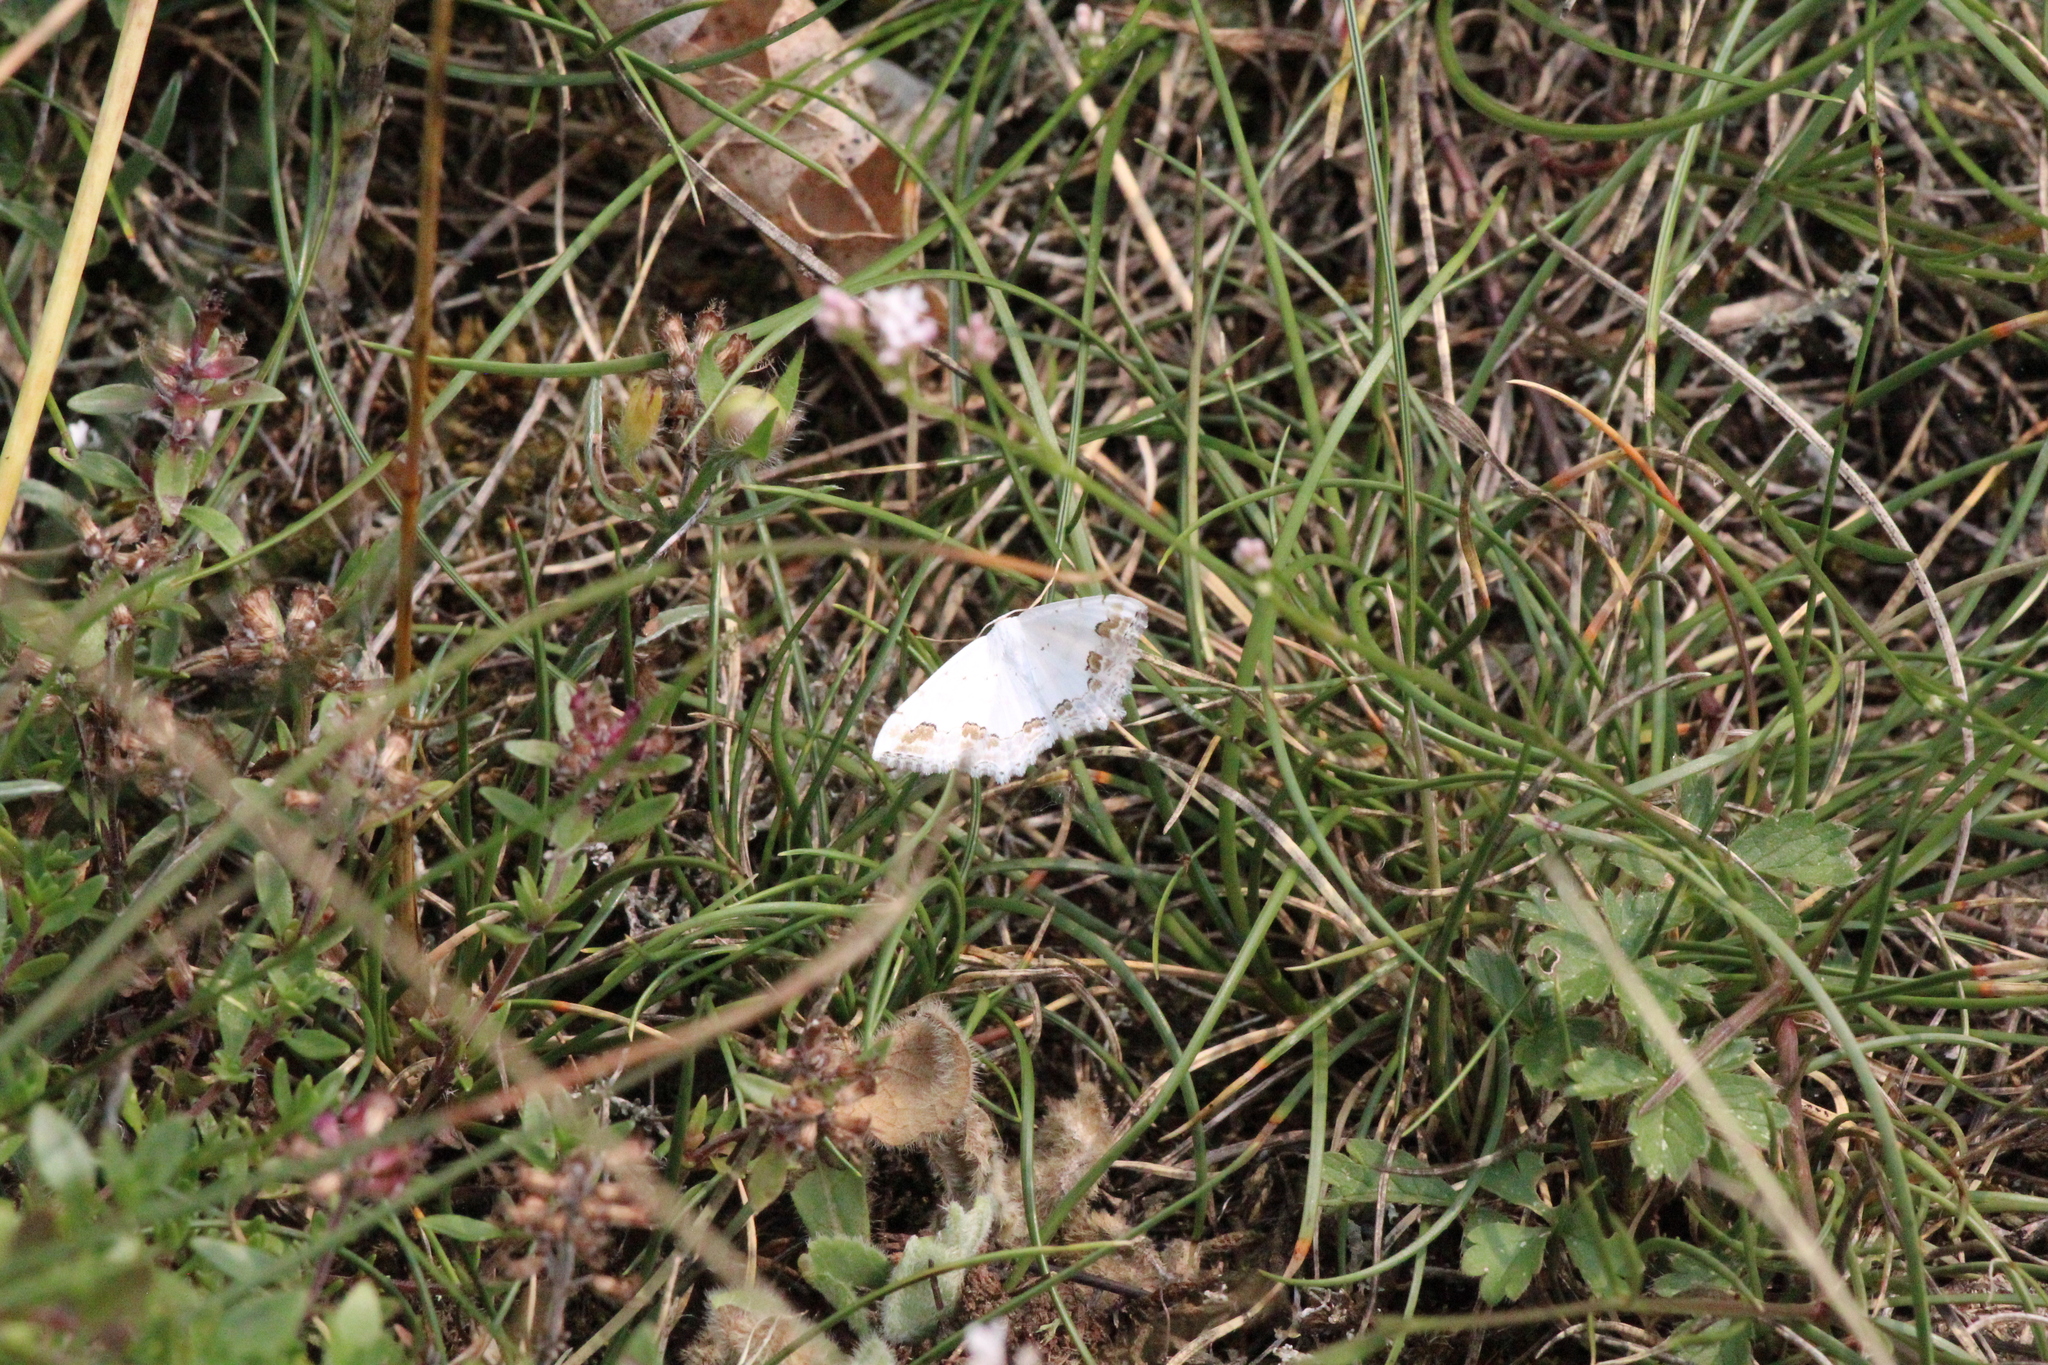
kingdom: Animalia
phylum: Arthropoda
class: Insecta
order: Lepidoptera
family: Geometridae
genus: Scopula
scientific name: Scopula ornata
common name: Lace border
